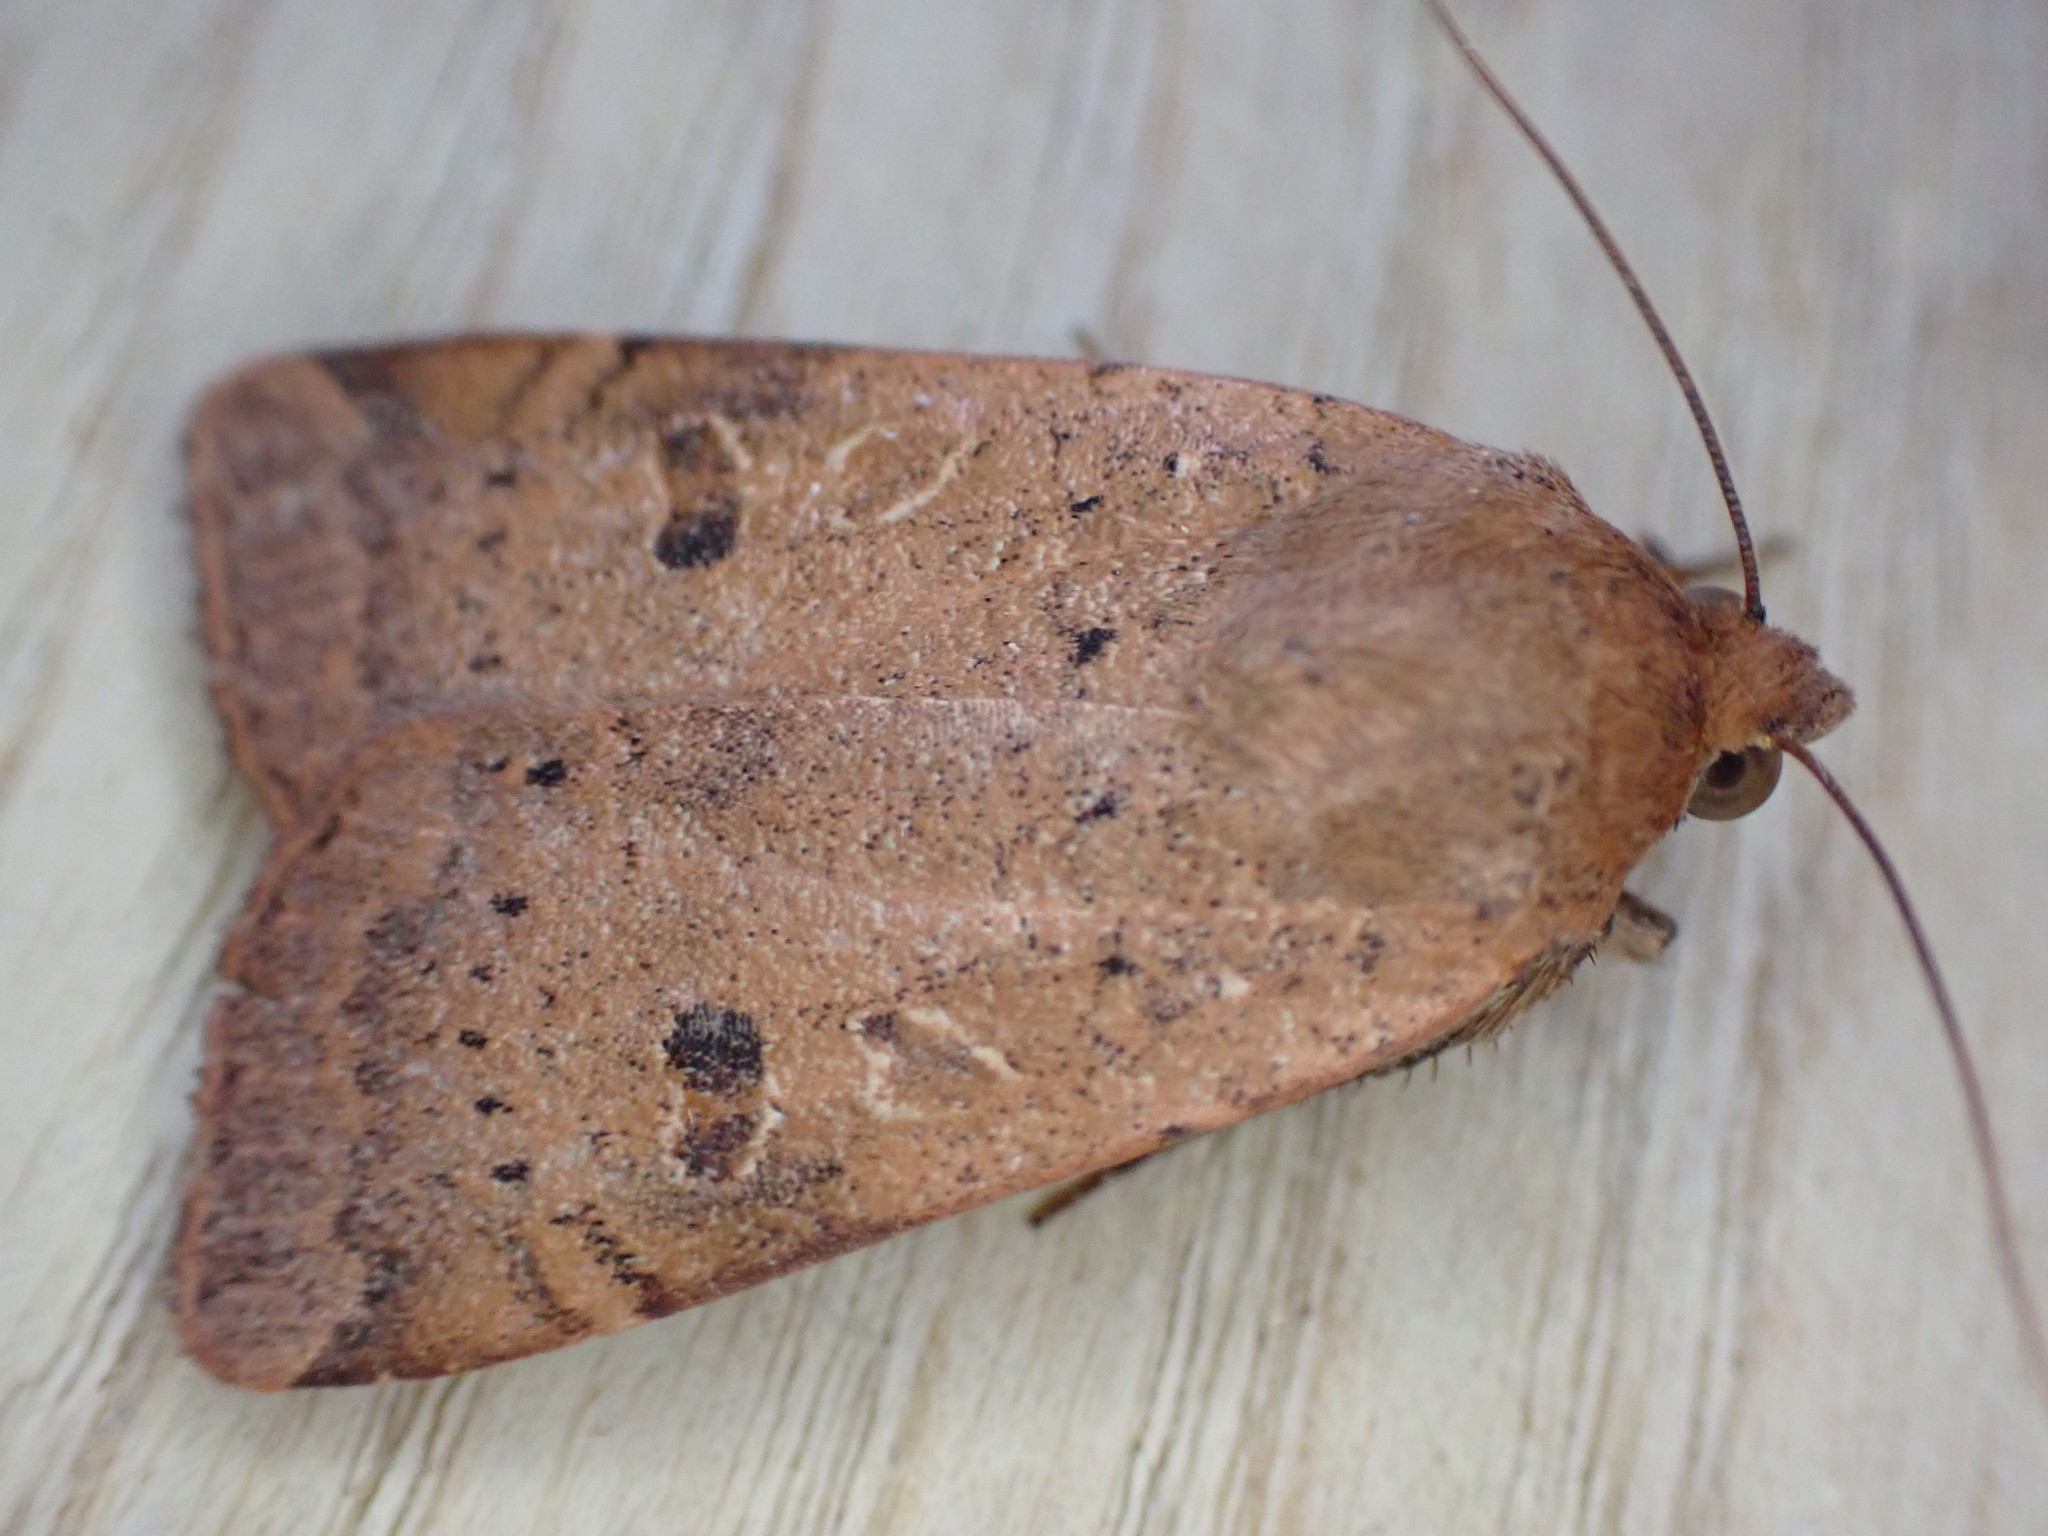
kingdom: Animalia
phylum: Arthropoda
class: Insecta
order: Lepidoptera
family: Noctuidae
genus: Noctua
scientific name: Noctua comes
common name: Lesser yellow underwing
